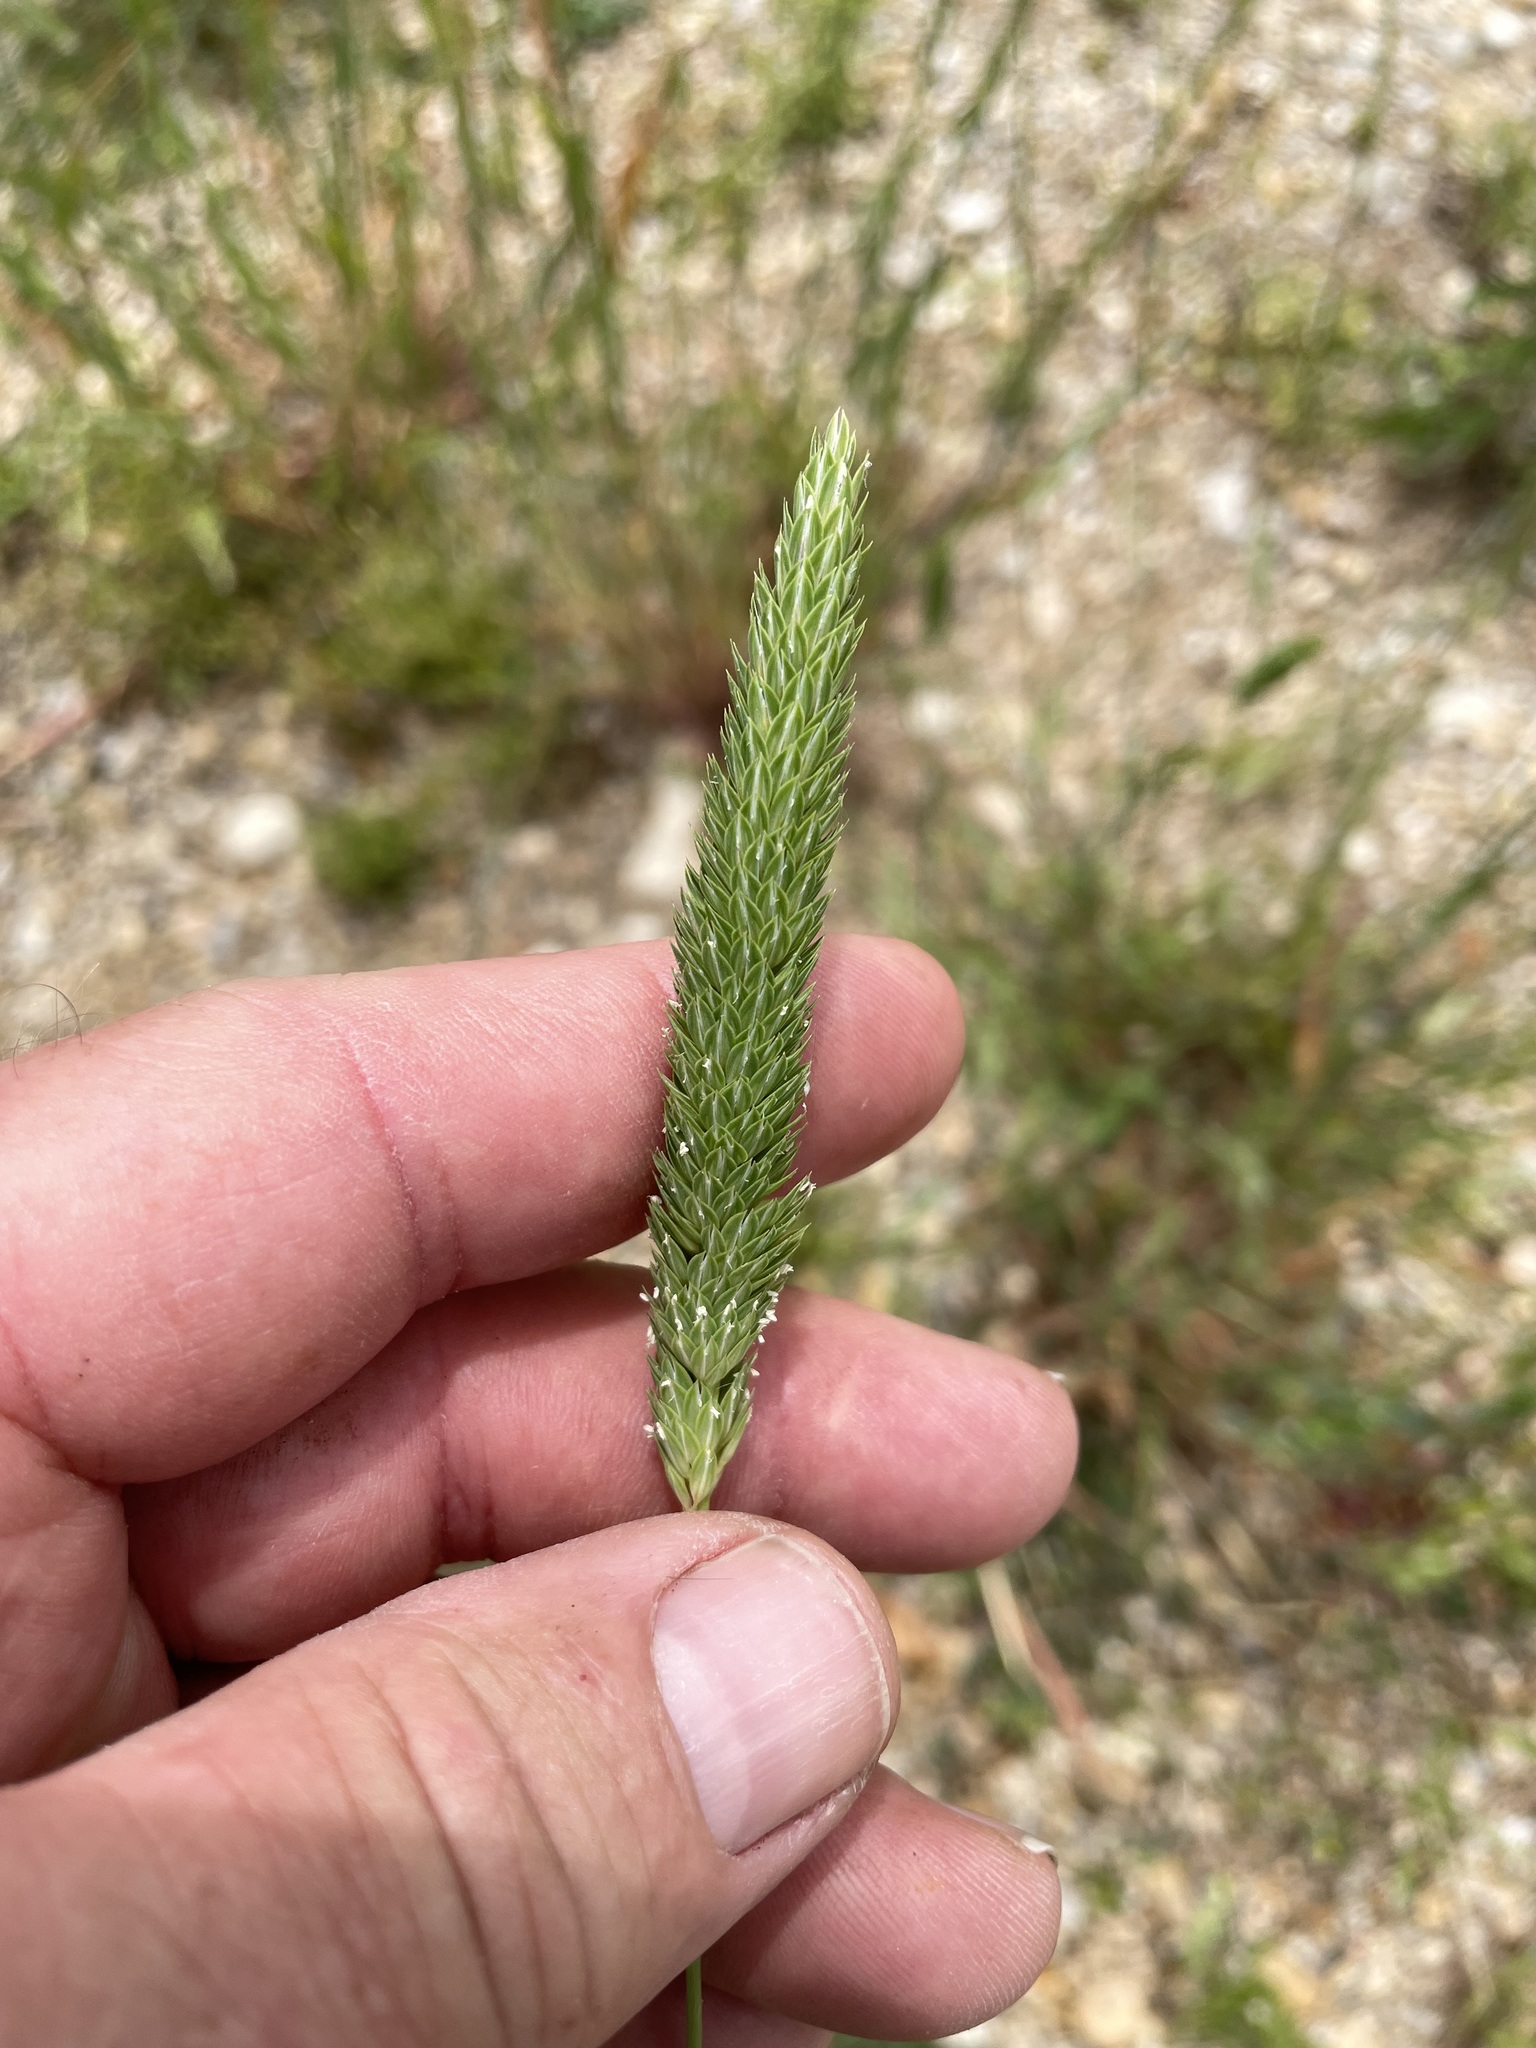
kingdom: Plantae
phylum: Tracheophyta
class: Liliopsida
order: Poales
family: Poaceae
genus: Phalaris
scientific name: Phalaris caroliniana
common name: May grass
